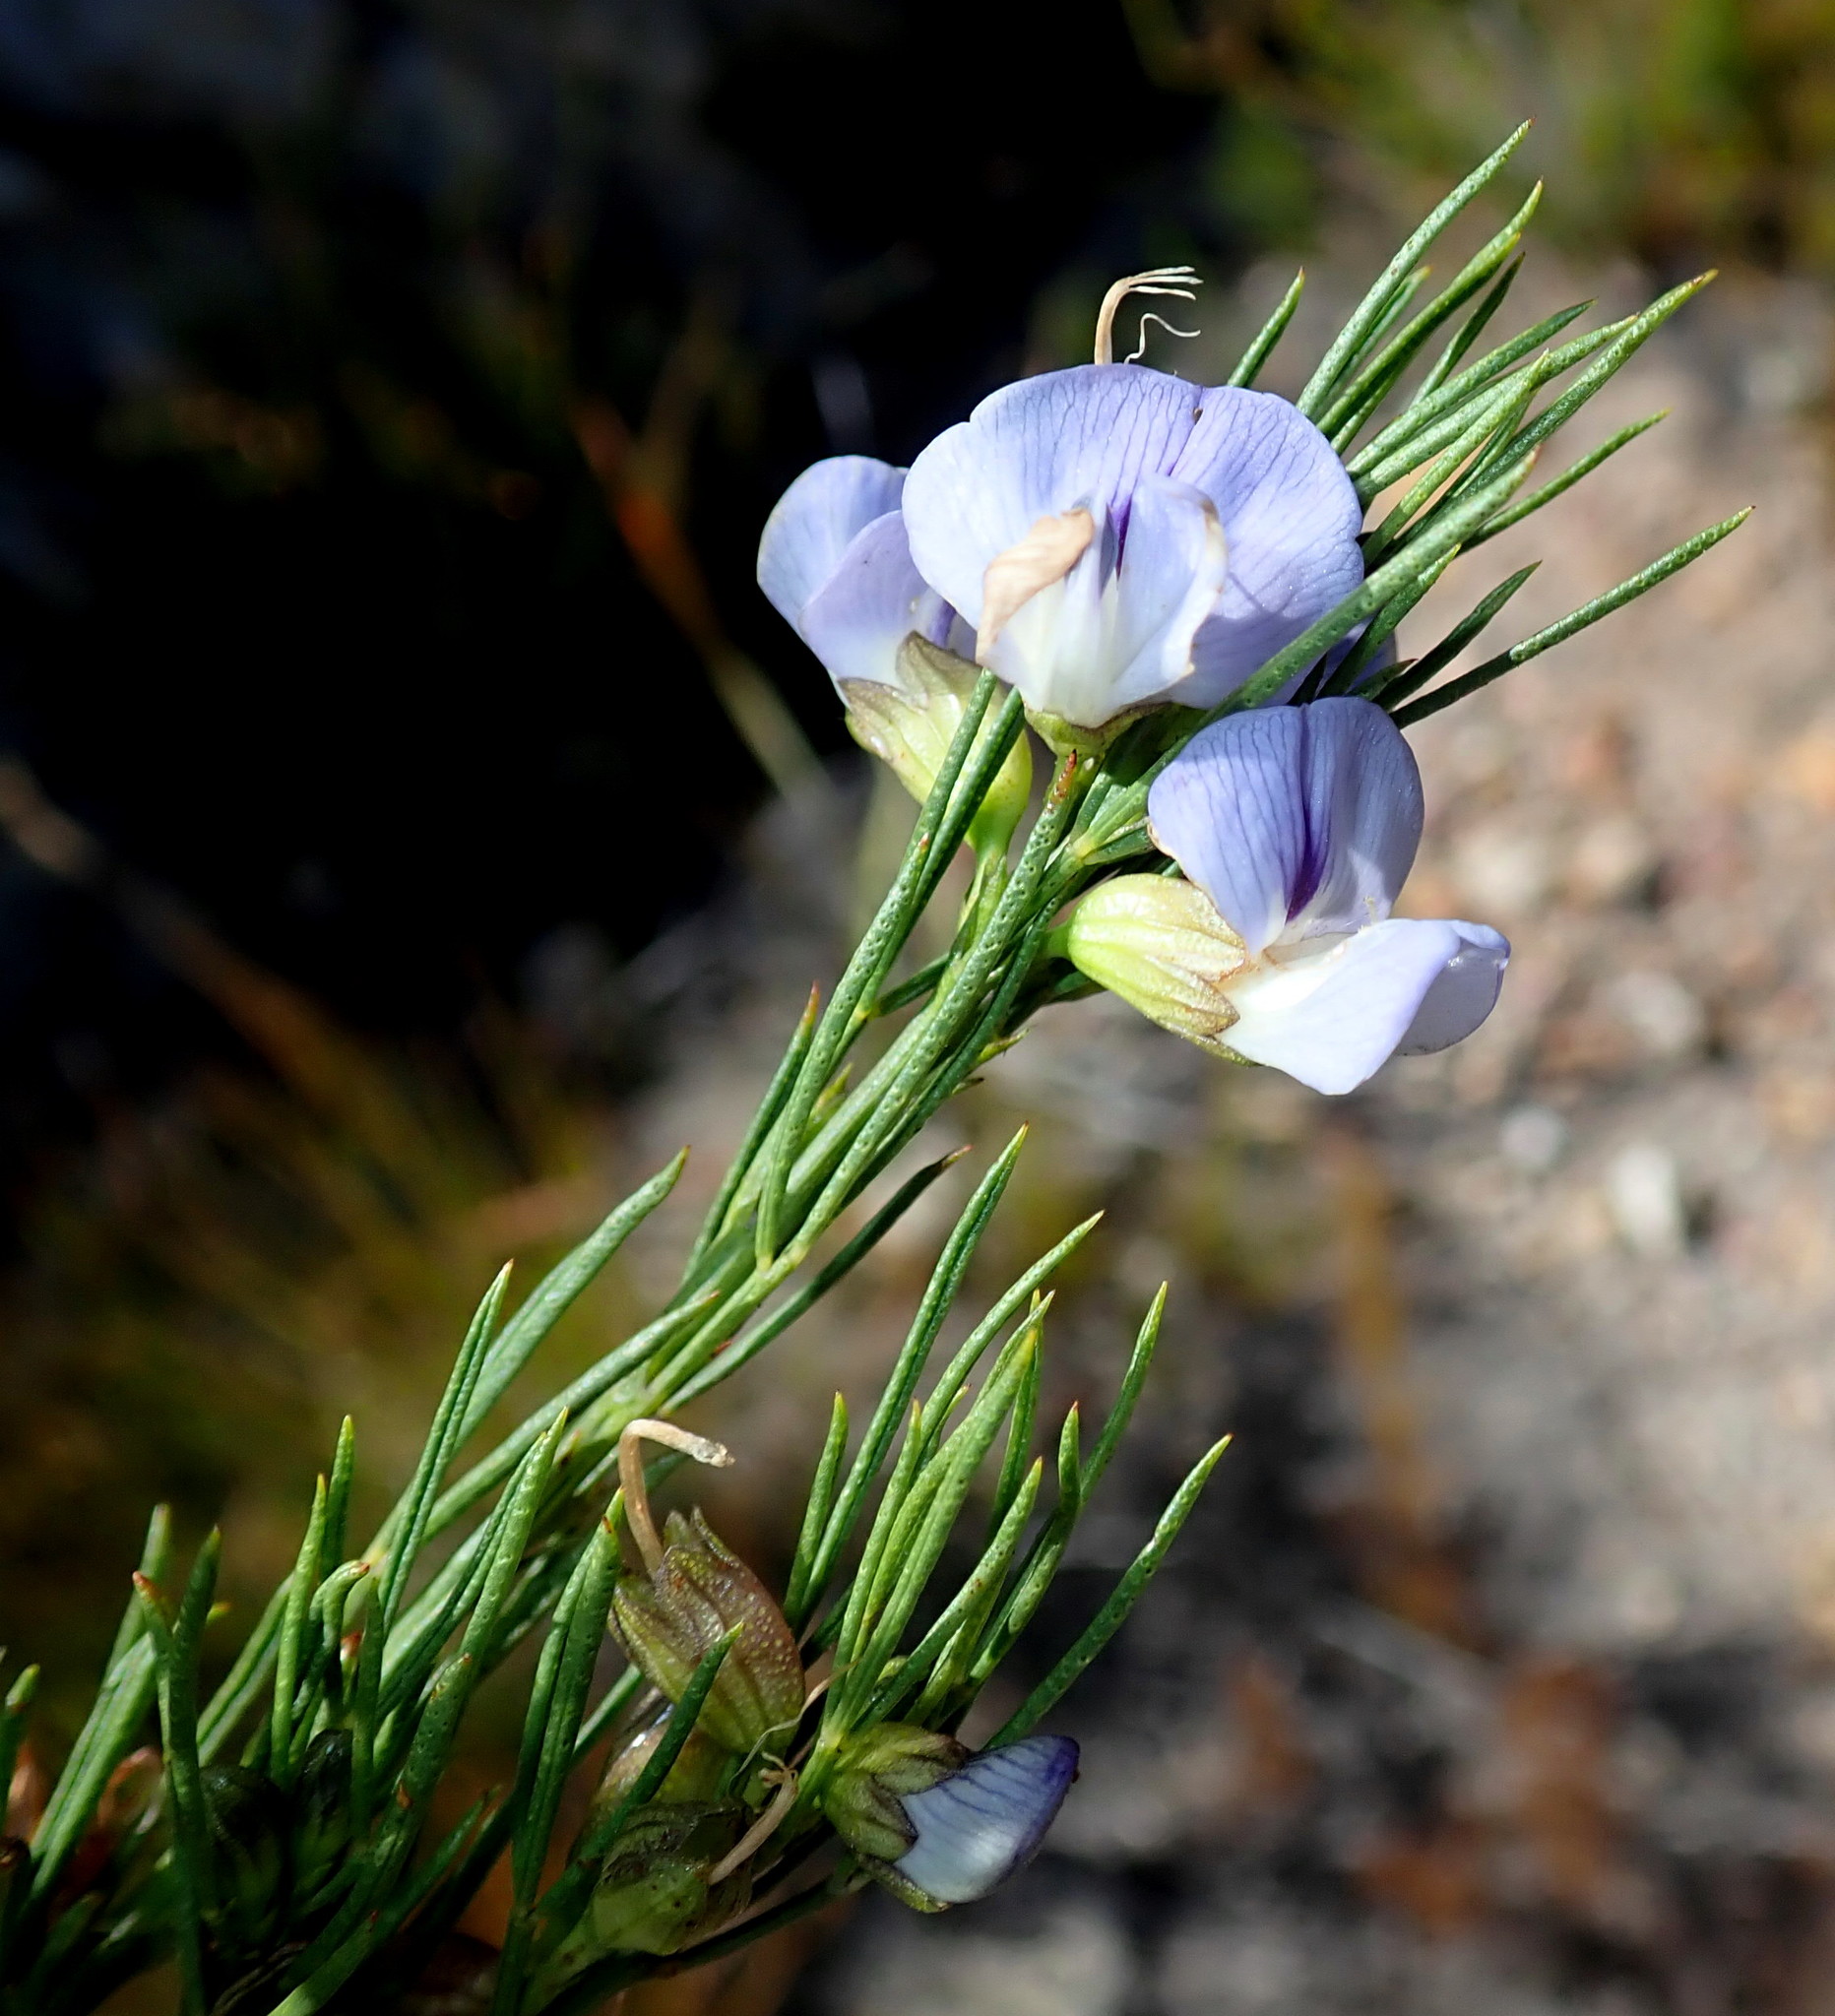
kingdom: Plantae
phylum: Tracheophyta
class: Magnoliopsida
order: Fabales
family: Fabaceae
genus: Psoralea
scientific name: Psoralea sordida
